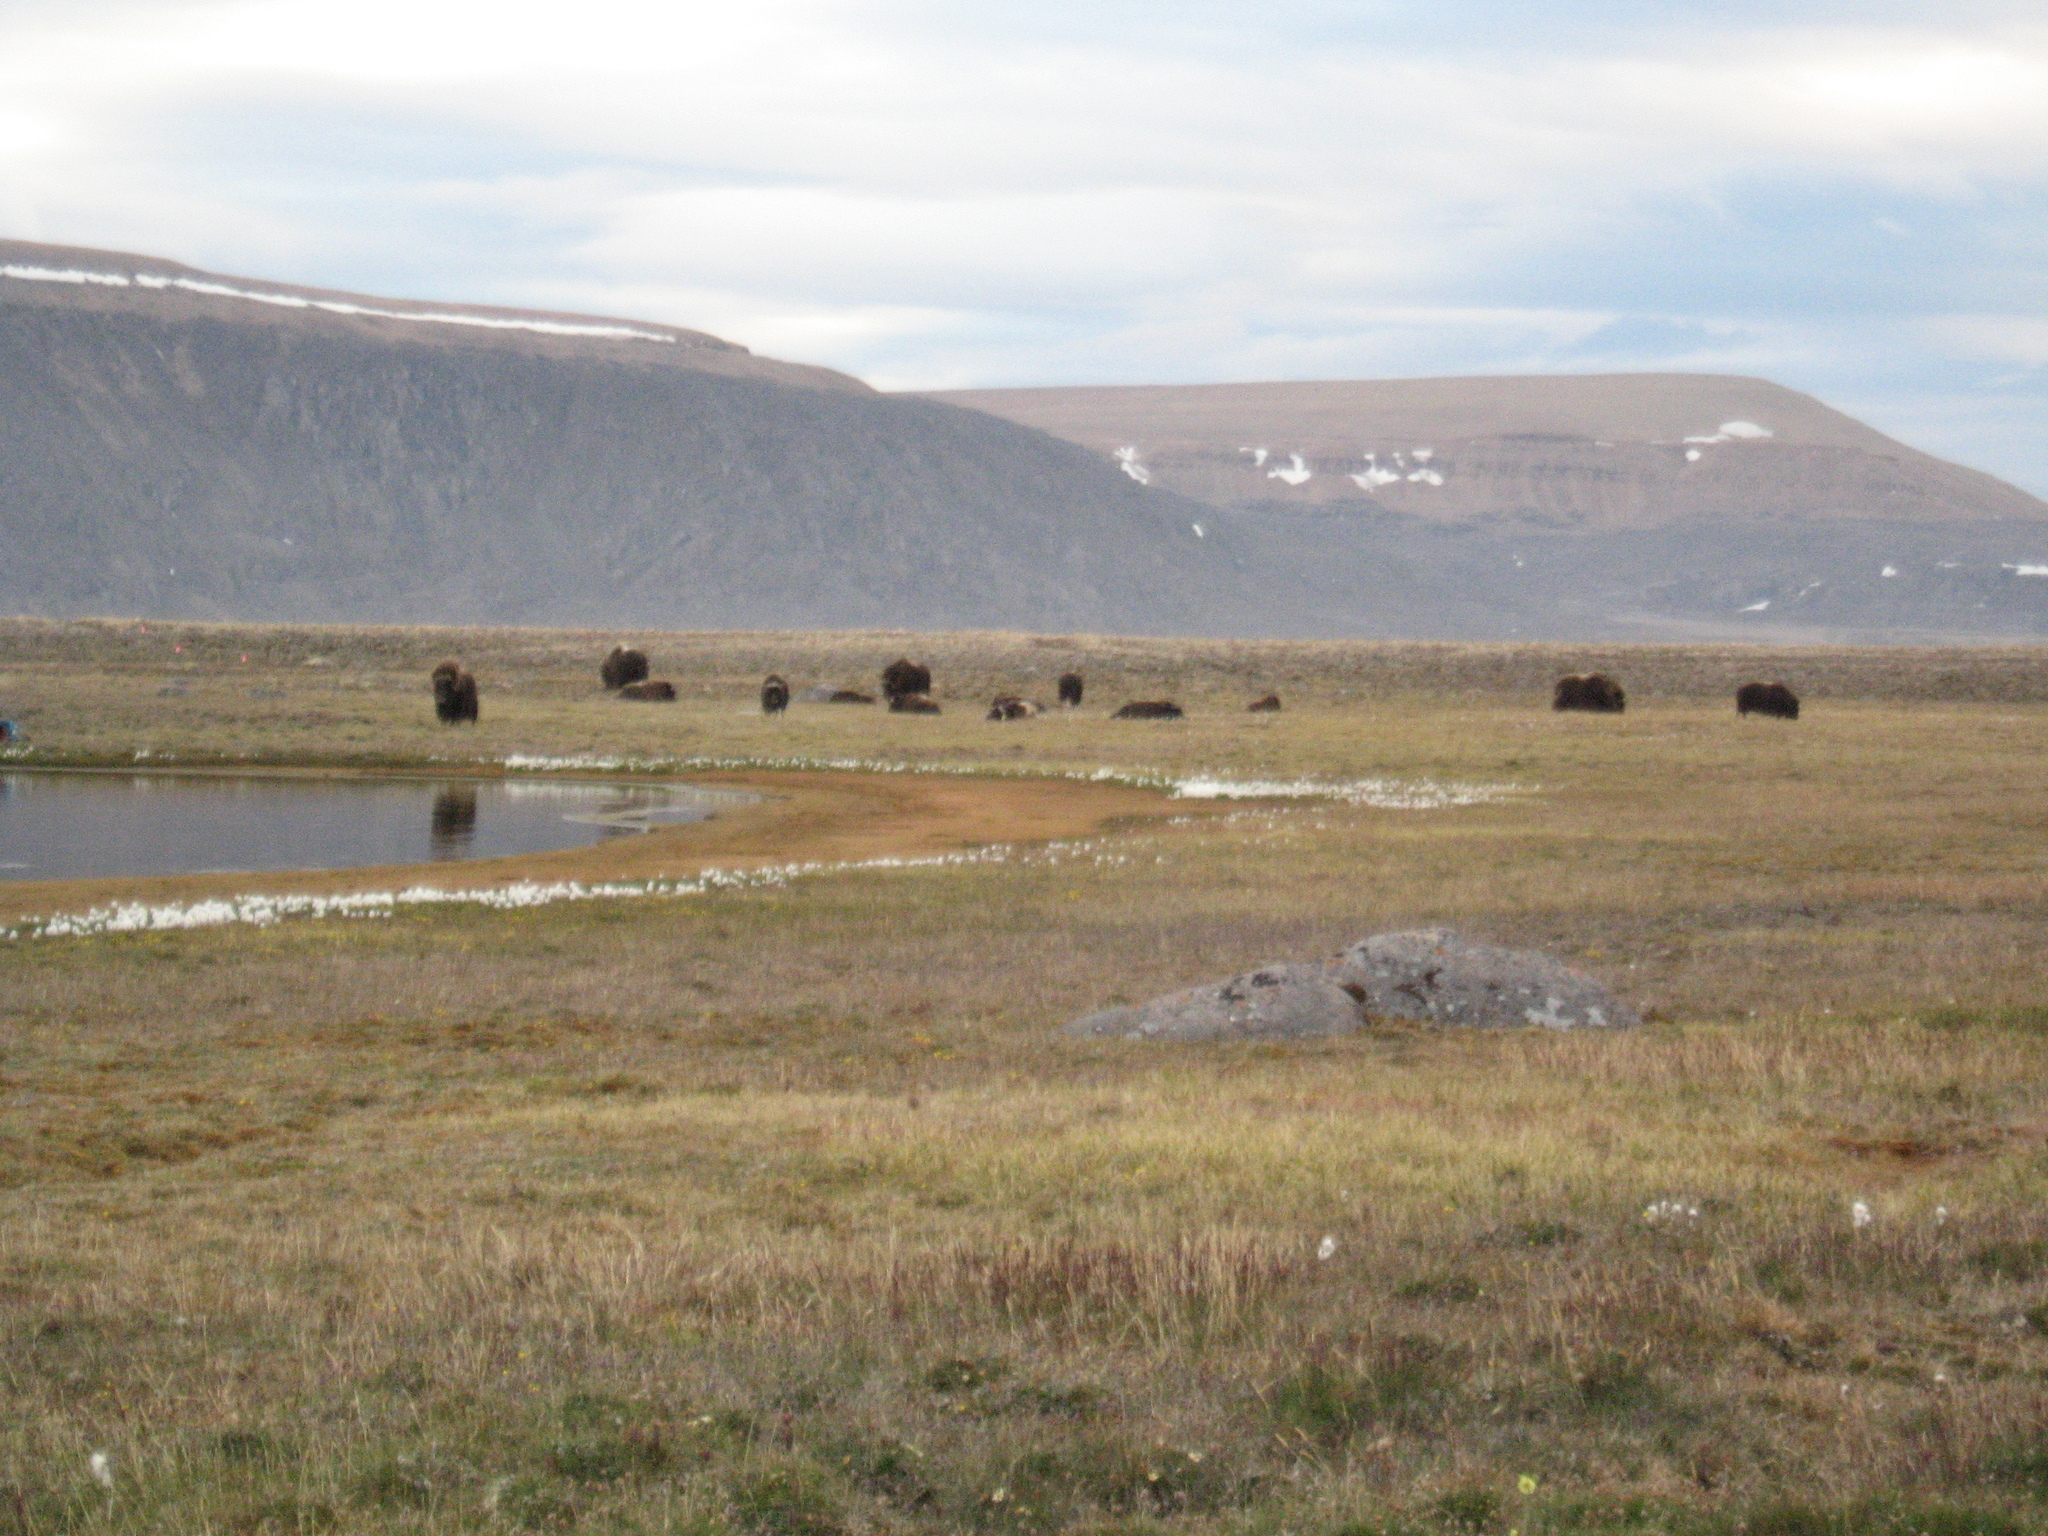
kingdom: Animalia
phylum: Chordata
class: Mammalia
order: Artiodactyla
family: Bovidae
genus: Ovibos
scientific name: Ovibos moschatus
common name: Muskox
